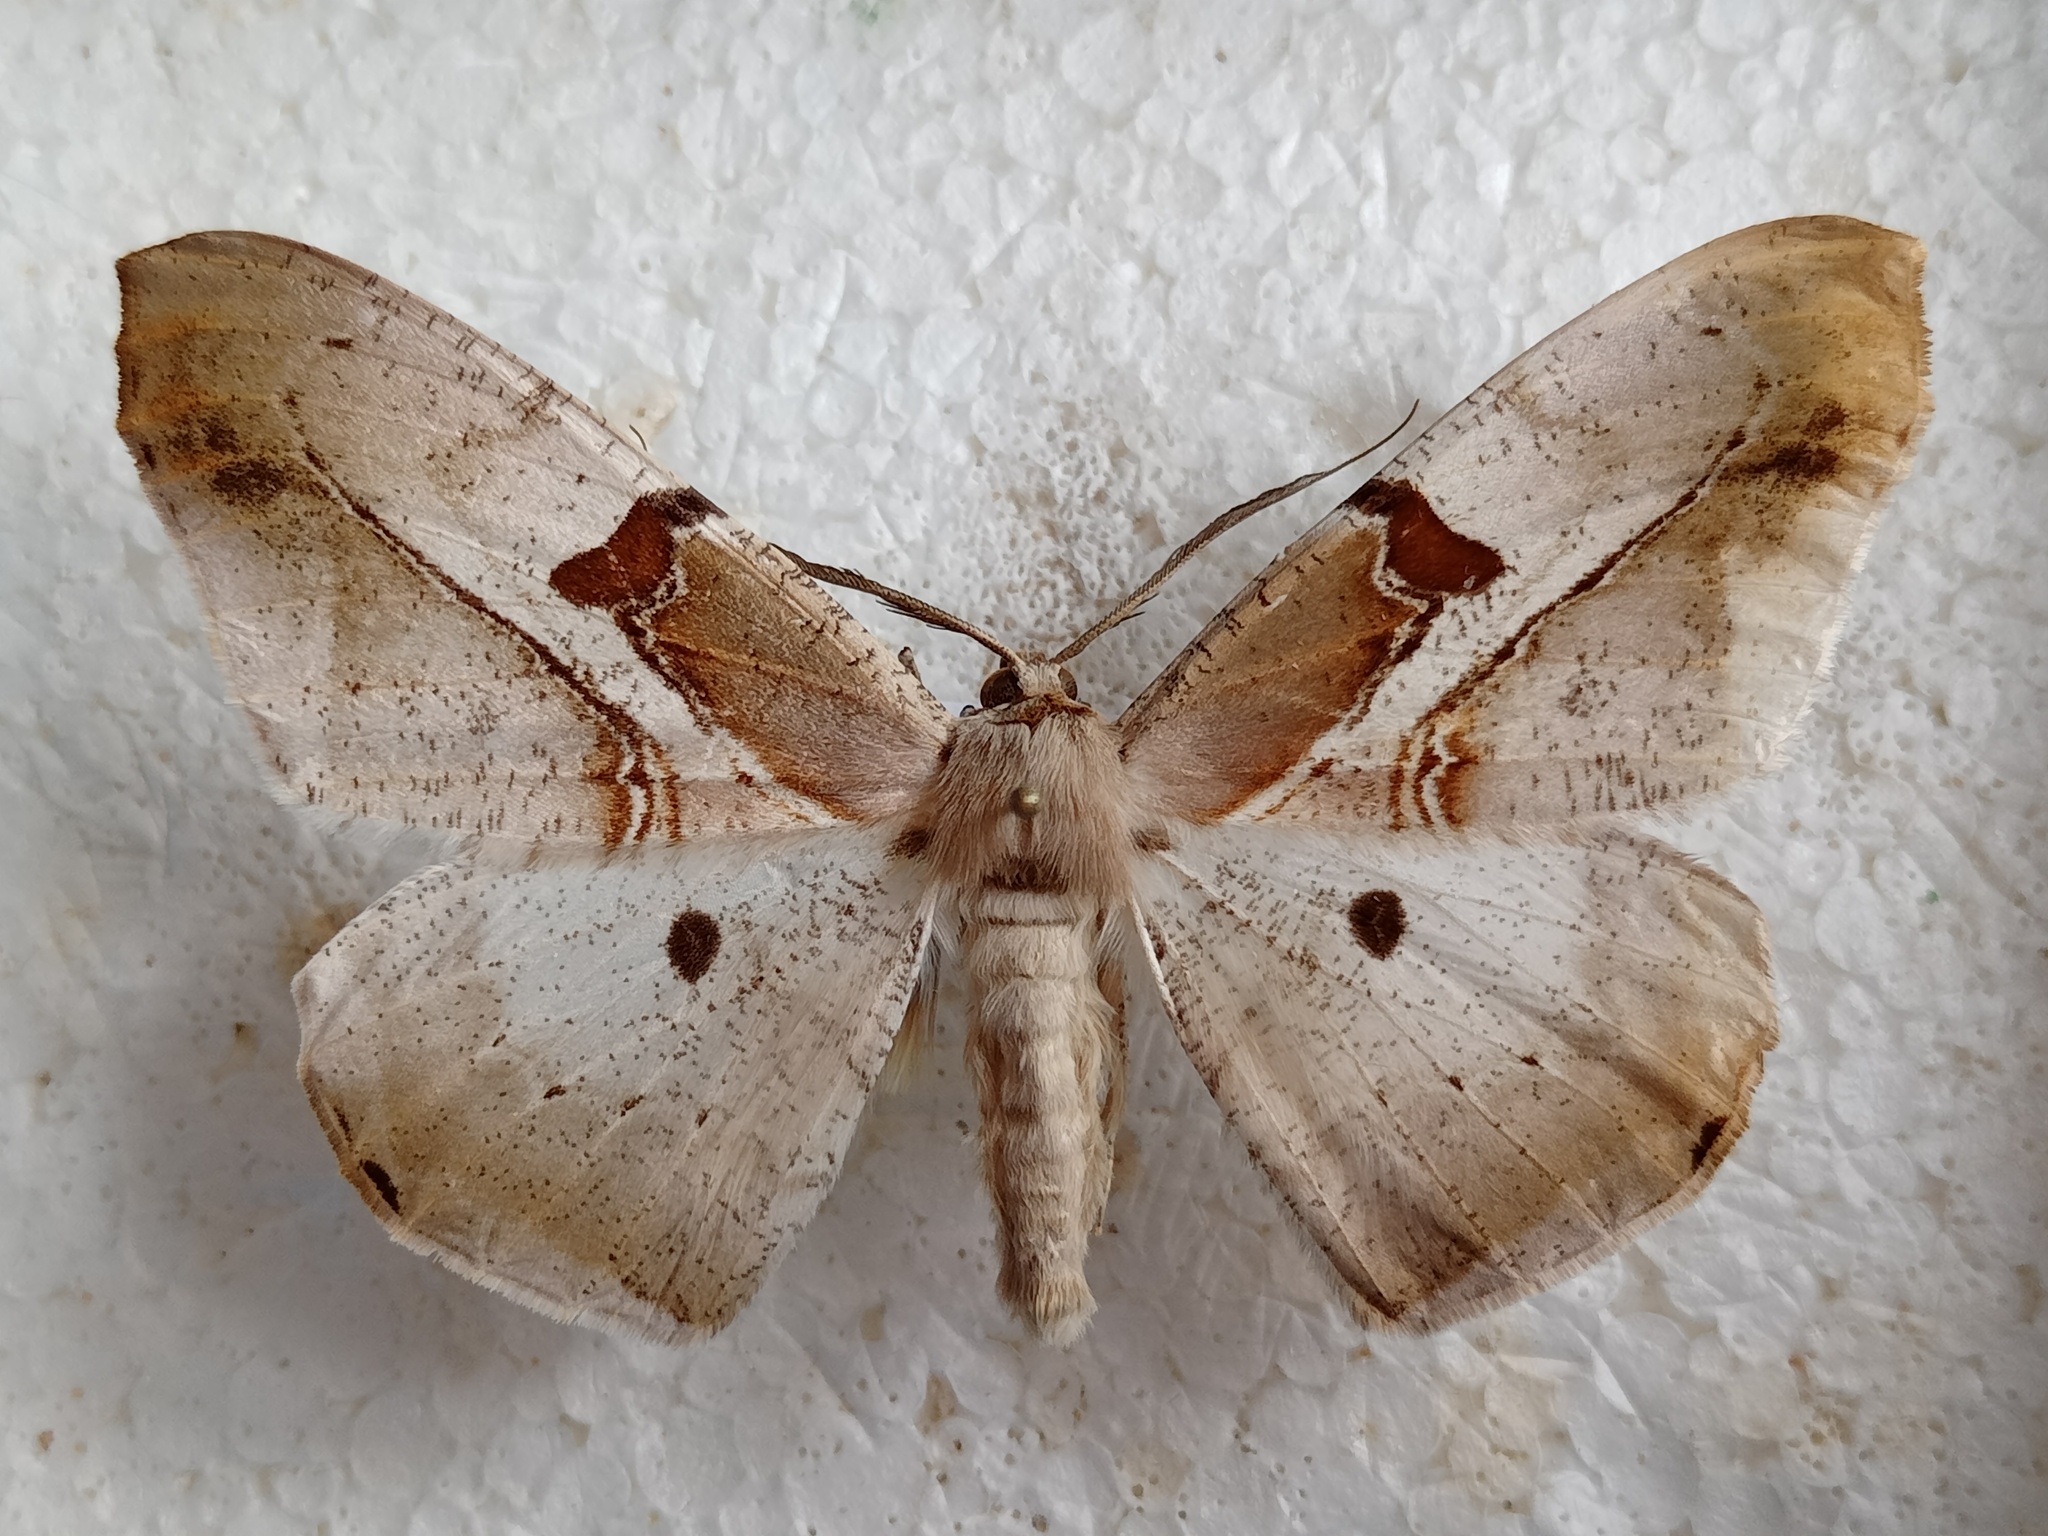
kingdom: Animalia
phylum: Arthropoda
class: Insecta
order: Lepidoptera
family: Geometridae
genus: Chorodna
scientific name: Chorodna erebusaria
